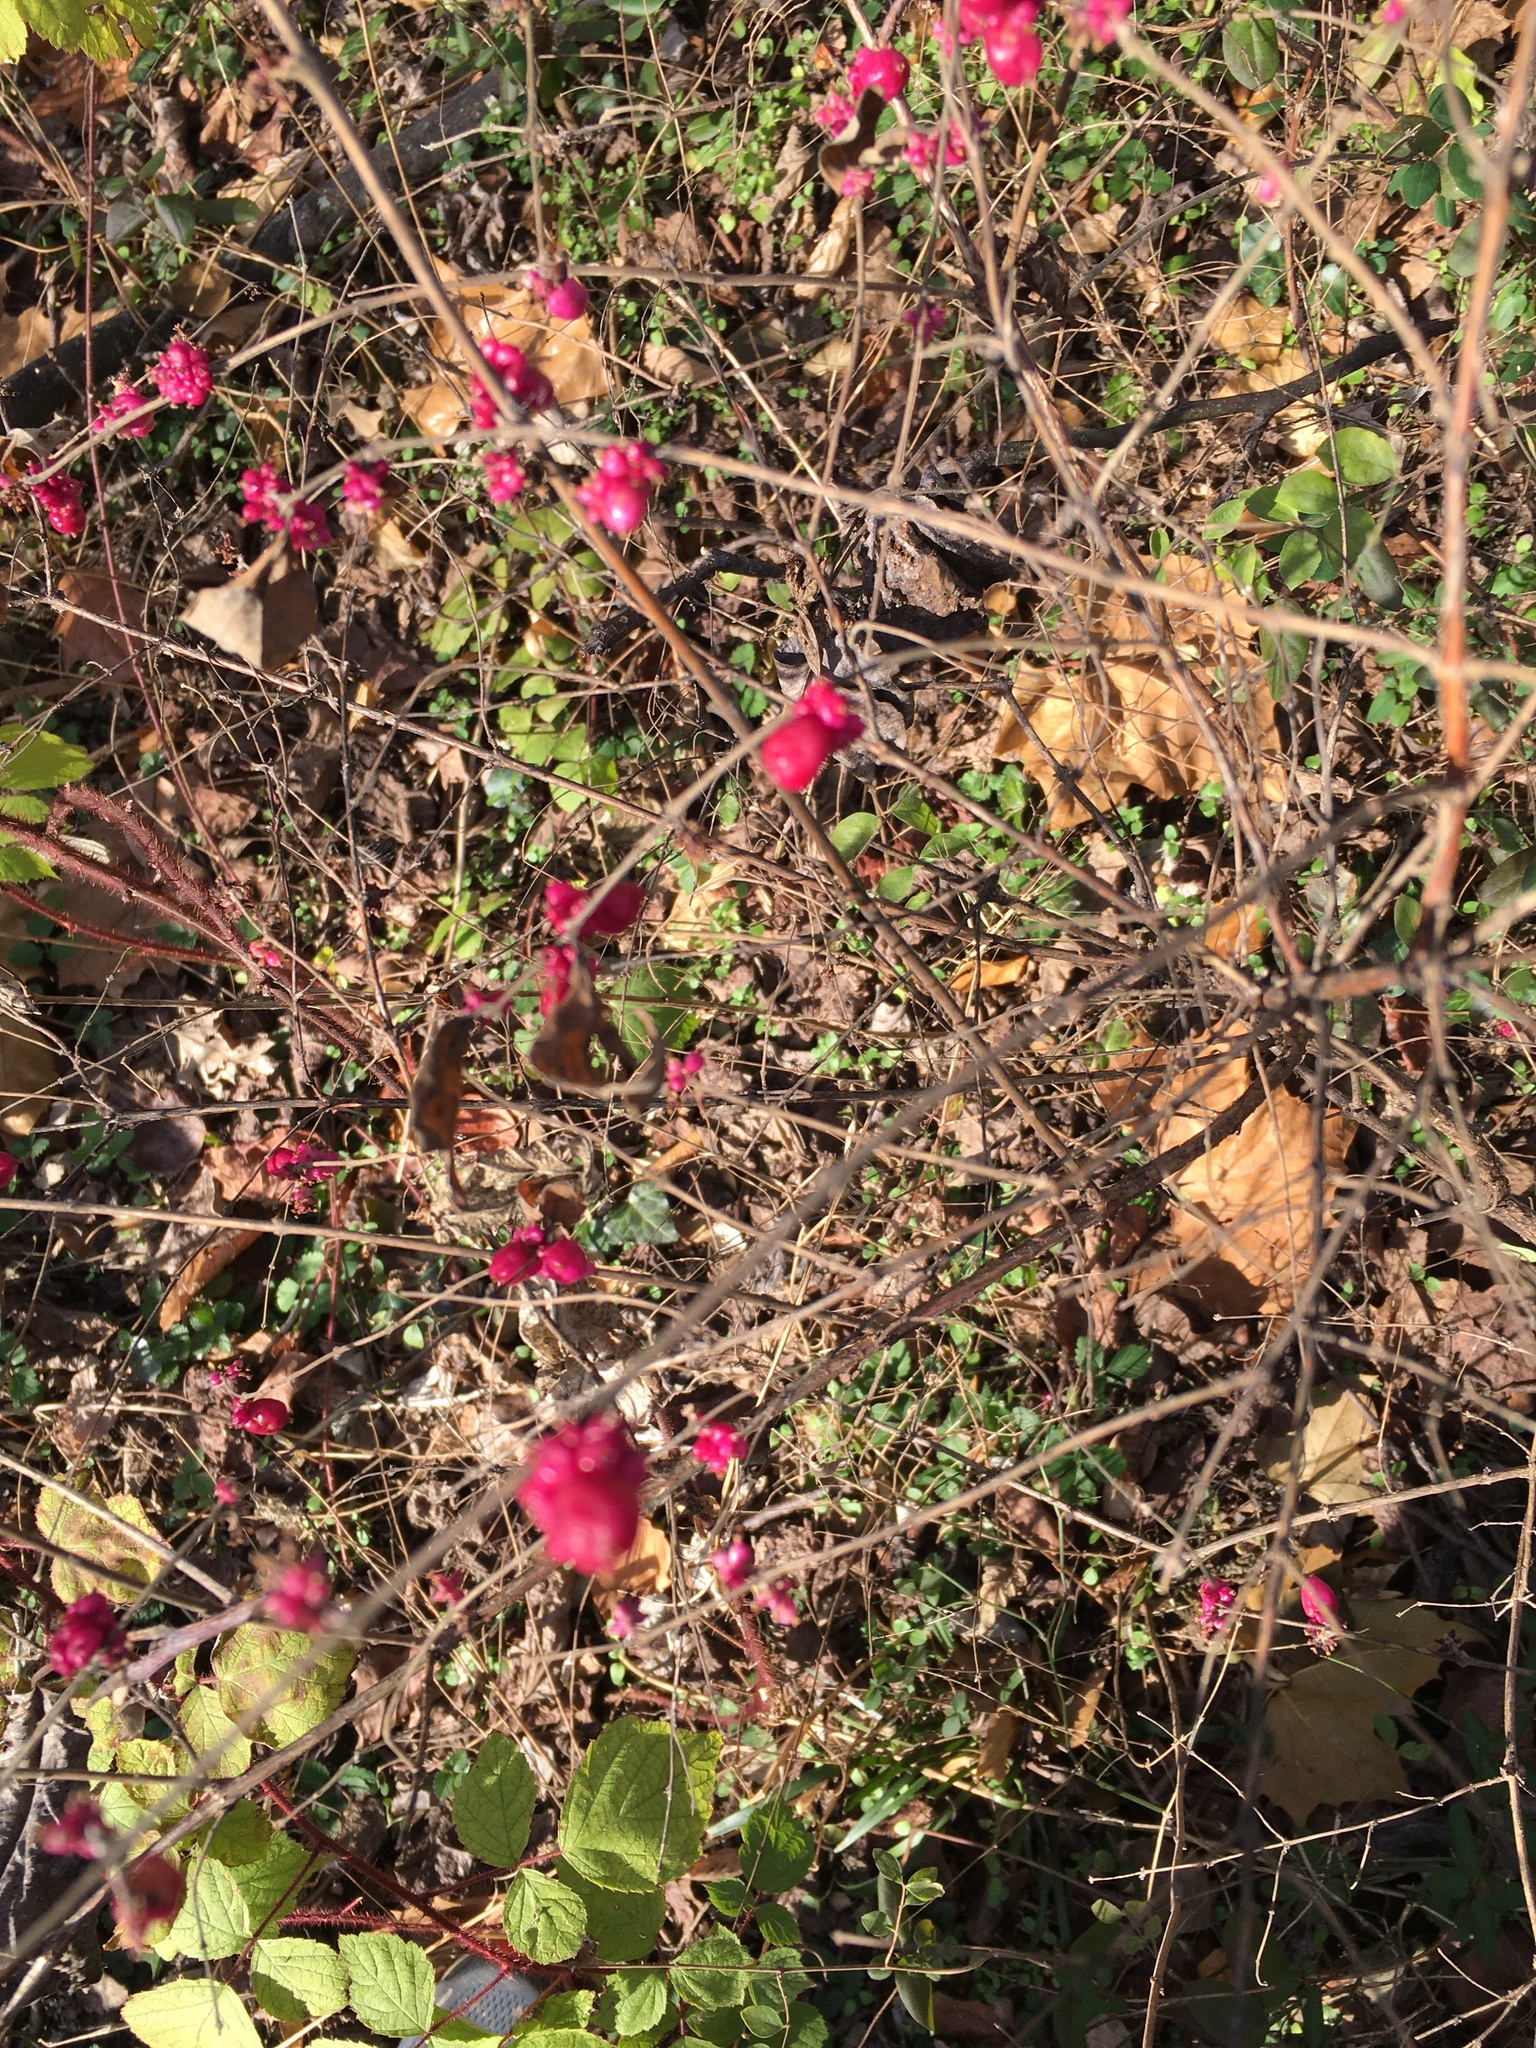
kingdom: Plantae
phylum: Tracheophyta
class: Magnoliopsida
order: Dipsacales
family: Caprifoliaceae
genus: Symphoricarpos
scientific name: Symphoricarpos orbiculatus
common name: Coralberry
